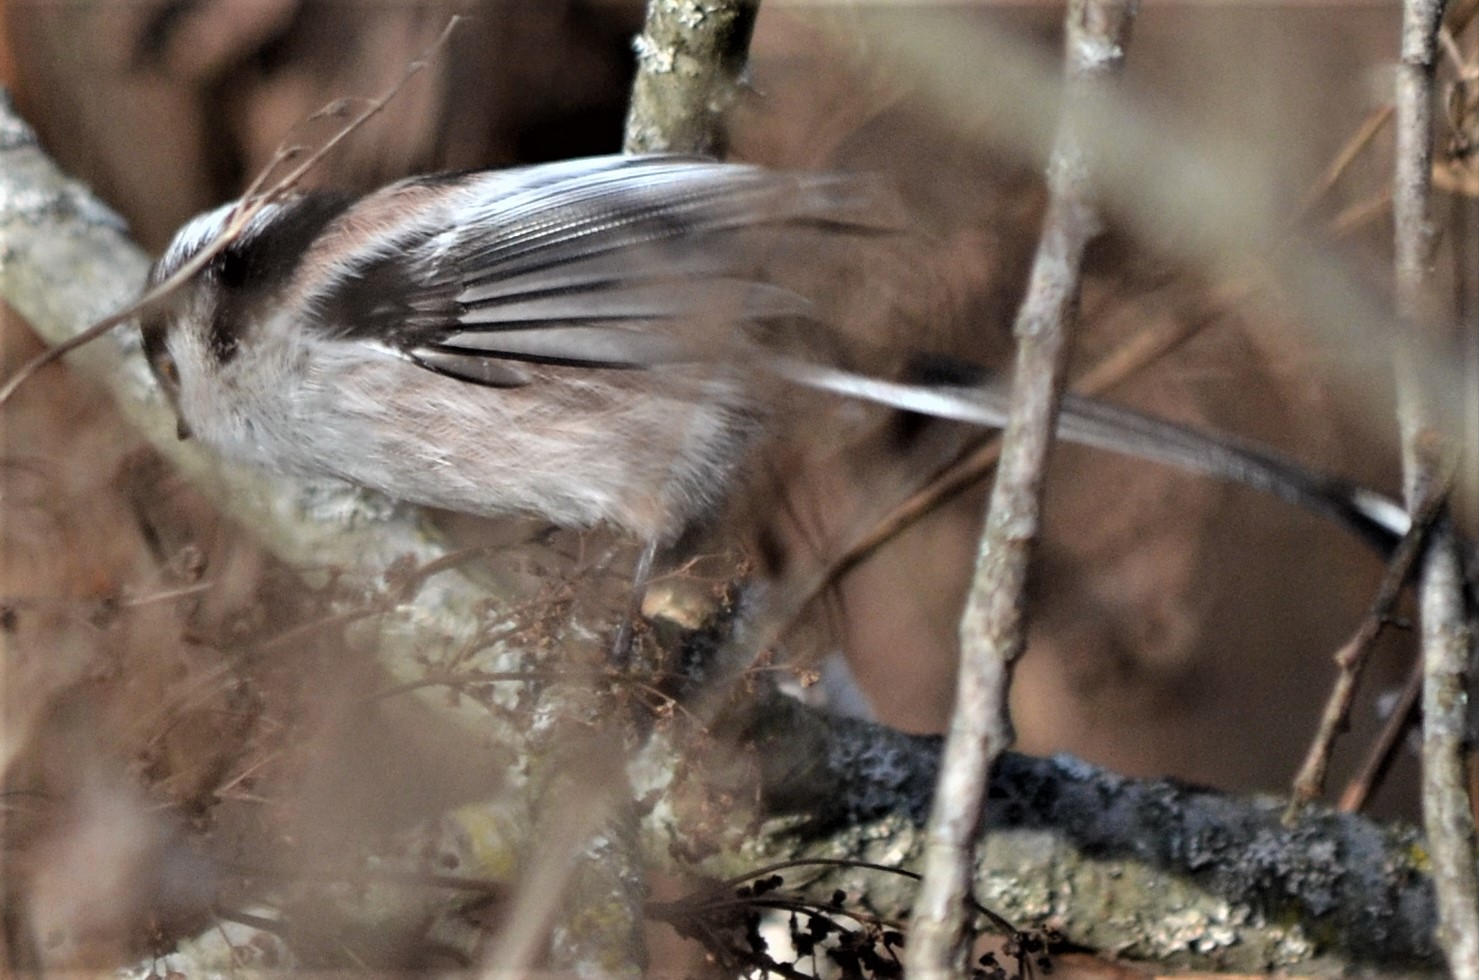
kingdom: Animalia
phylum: Chordata
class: Aves
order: Passeriformes
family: Aegithalidae
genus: Aegithalos
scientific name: Aegithalos caudatus
